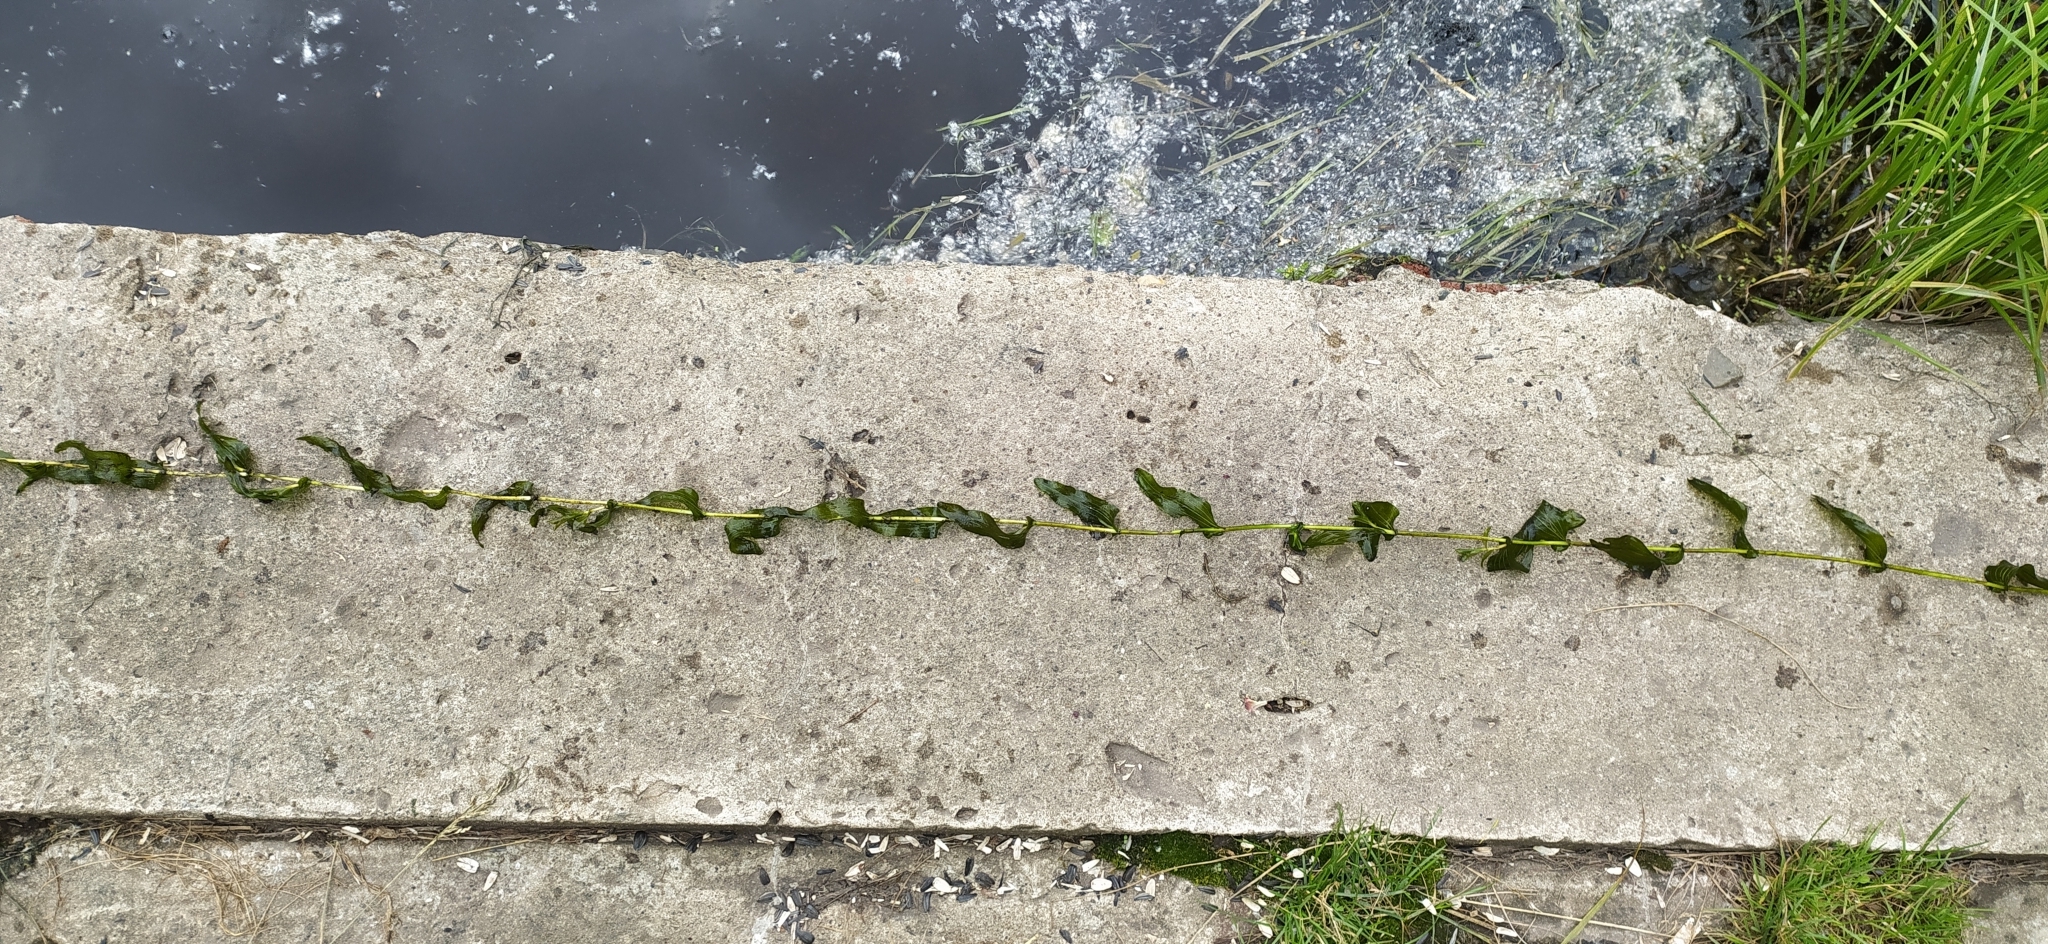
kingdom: Plantae
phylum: Tracheophyta
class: Liliopsida
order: Alismatales
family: Potamogetonaceae
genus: Potamogeton
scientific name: Potamogeton perfoliatus
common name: Perfoliate pondweed
